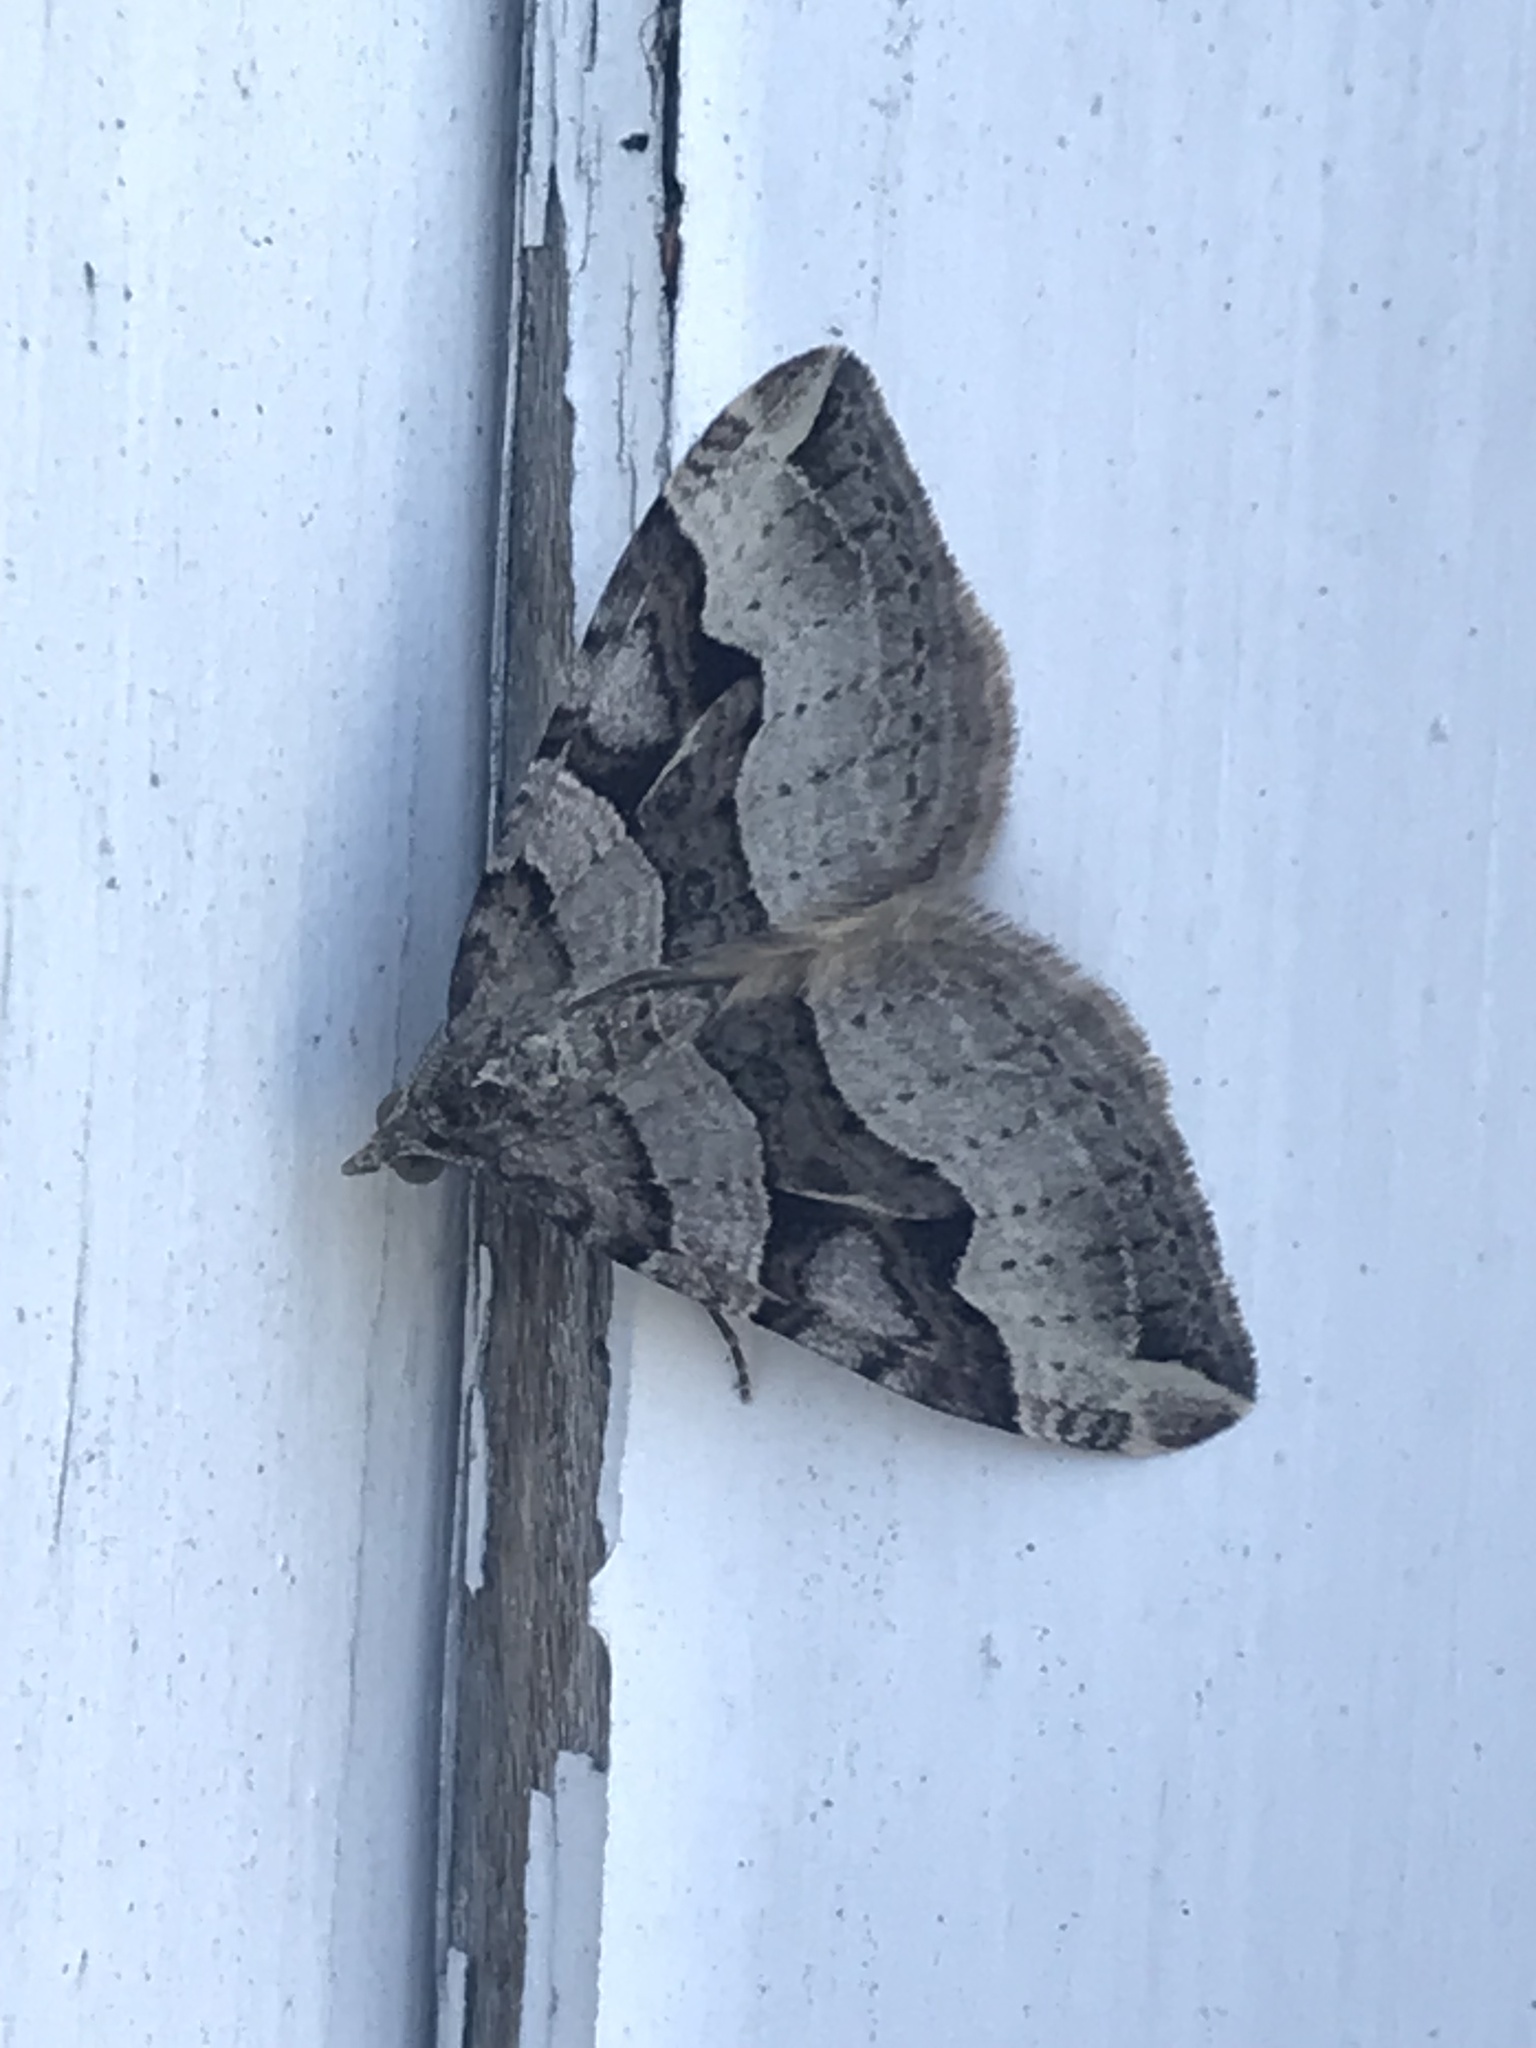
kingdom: Animalia
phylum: Arthropoda
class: Insecta
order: Lepidoptera
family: Geometridae
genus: Xanthorhoe
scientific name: Xanthorhoe semifissata
